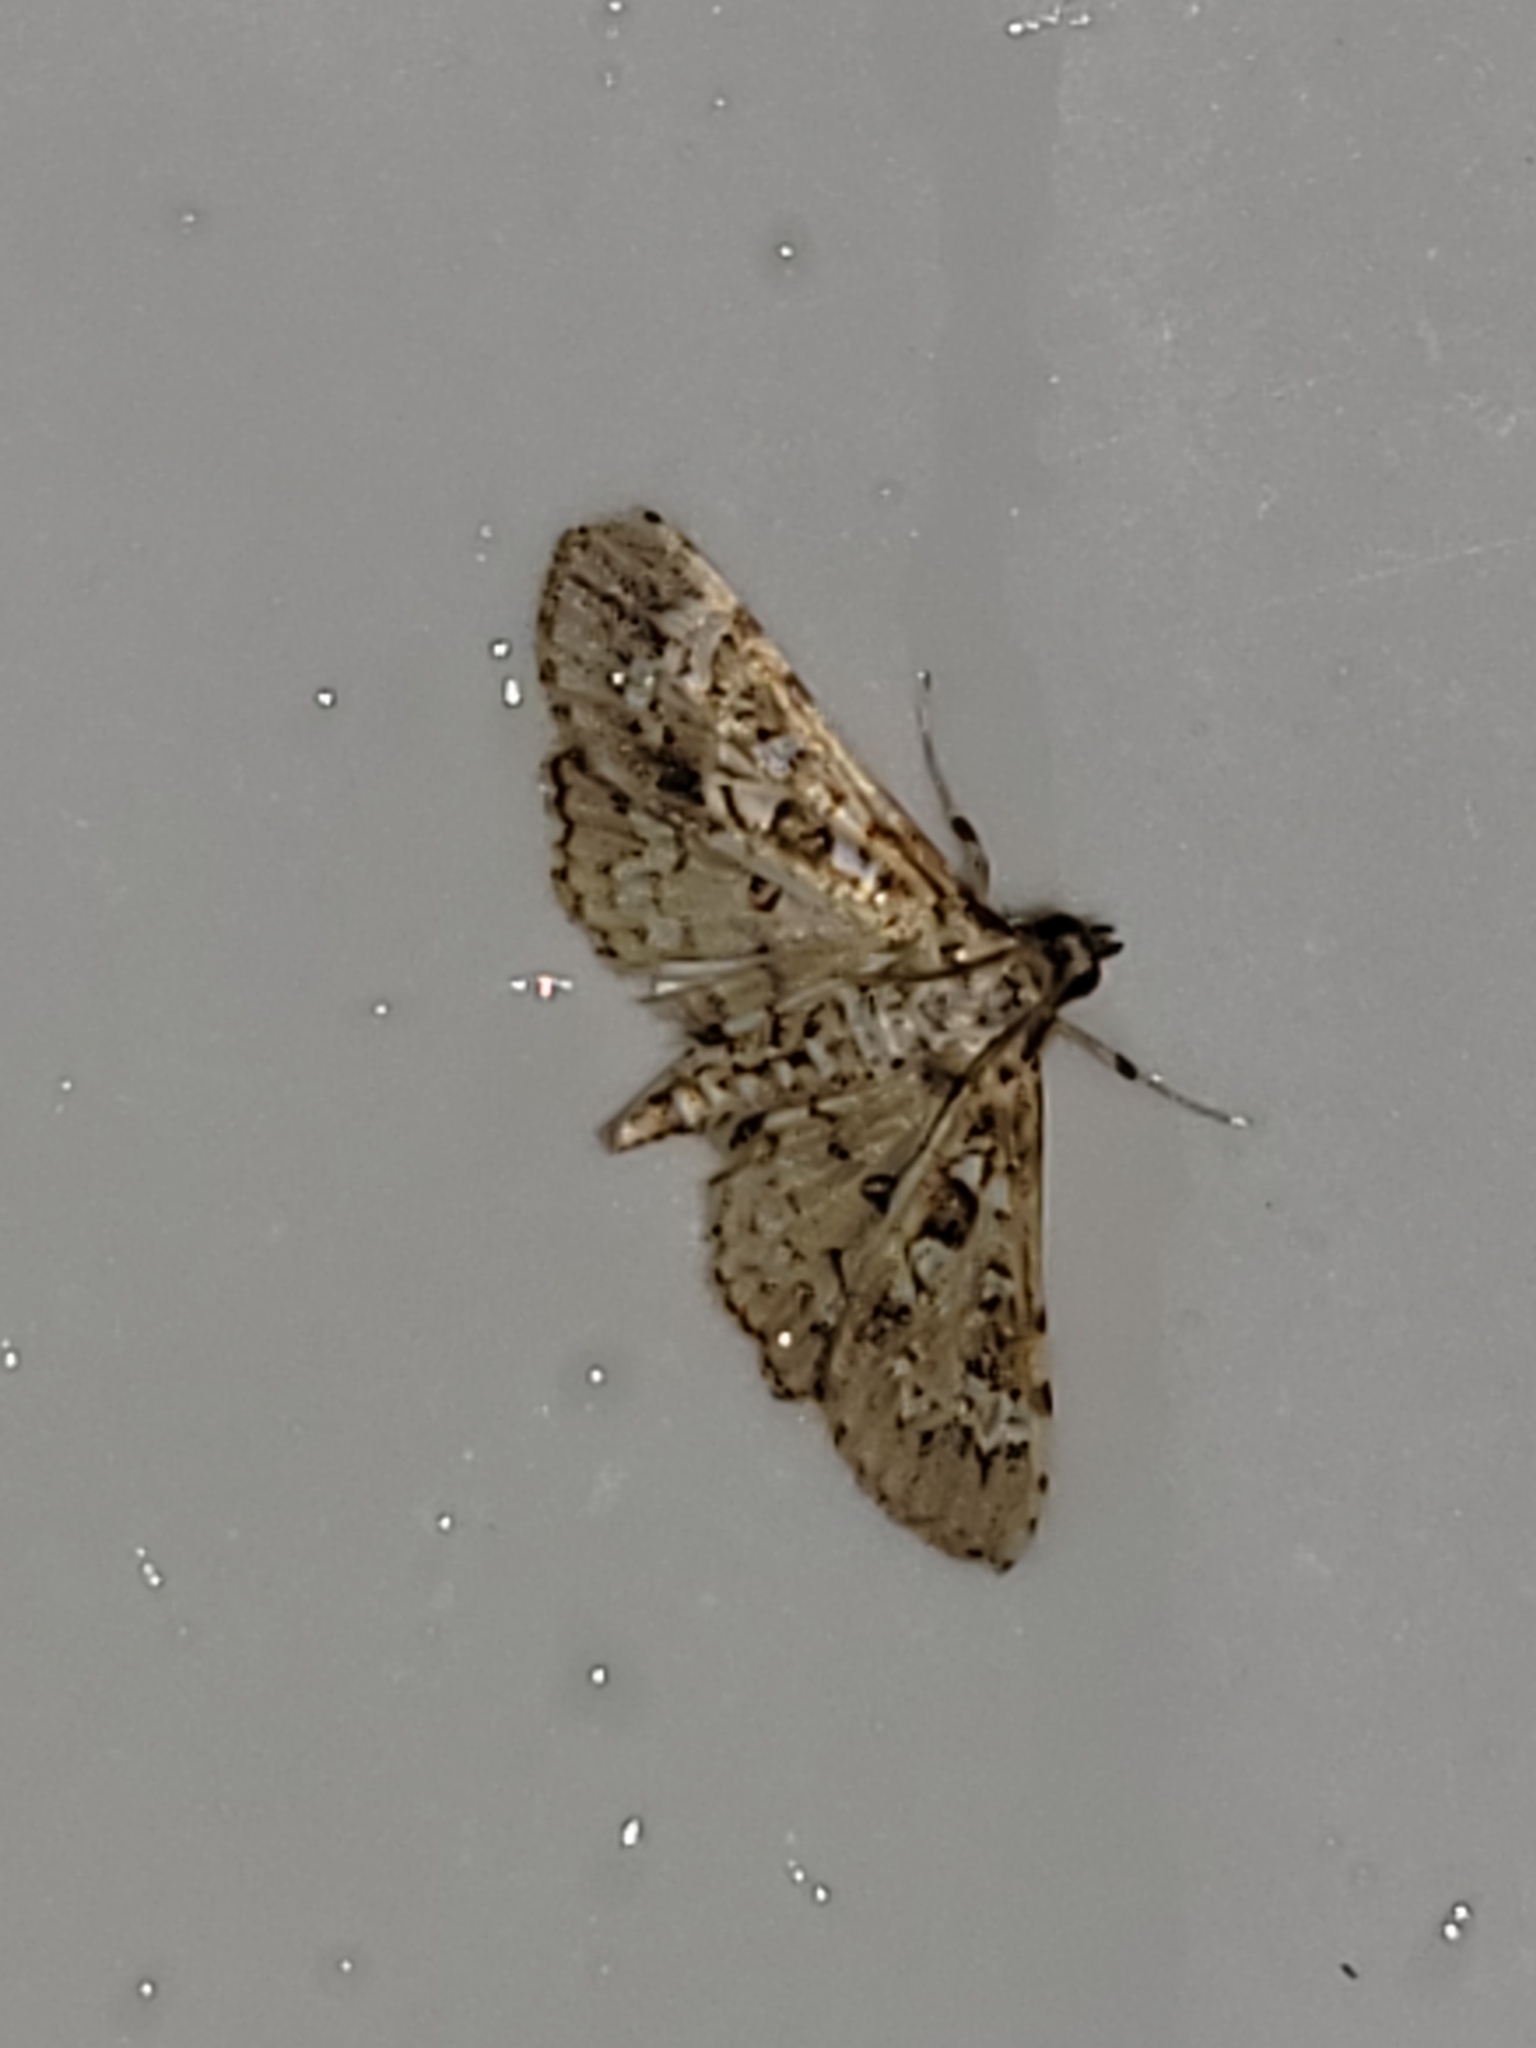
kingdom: Animalia
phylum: Arthropoda
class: Insecta
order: Lepidoptera
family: Crambidae
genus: Samea
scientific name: Samea multiplicalis
